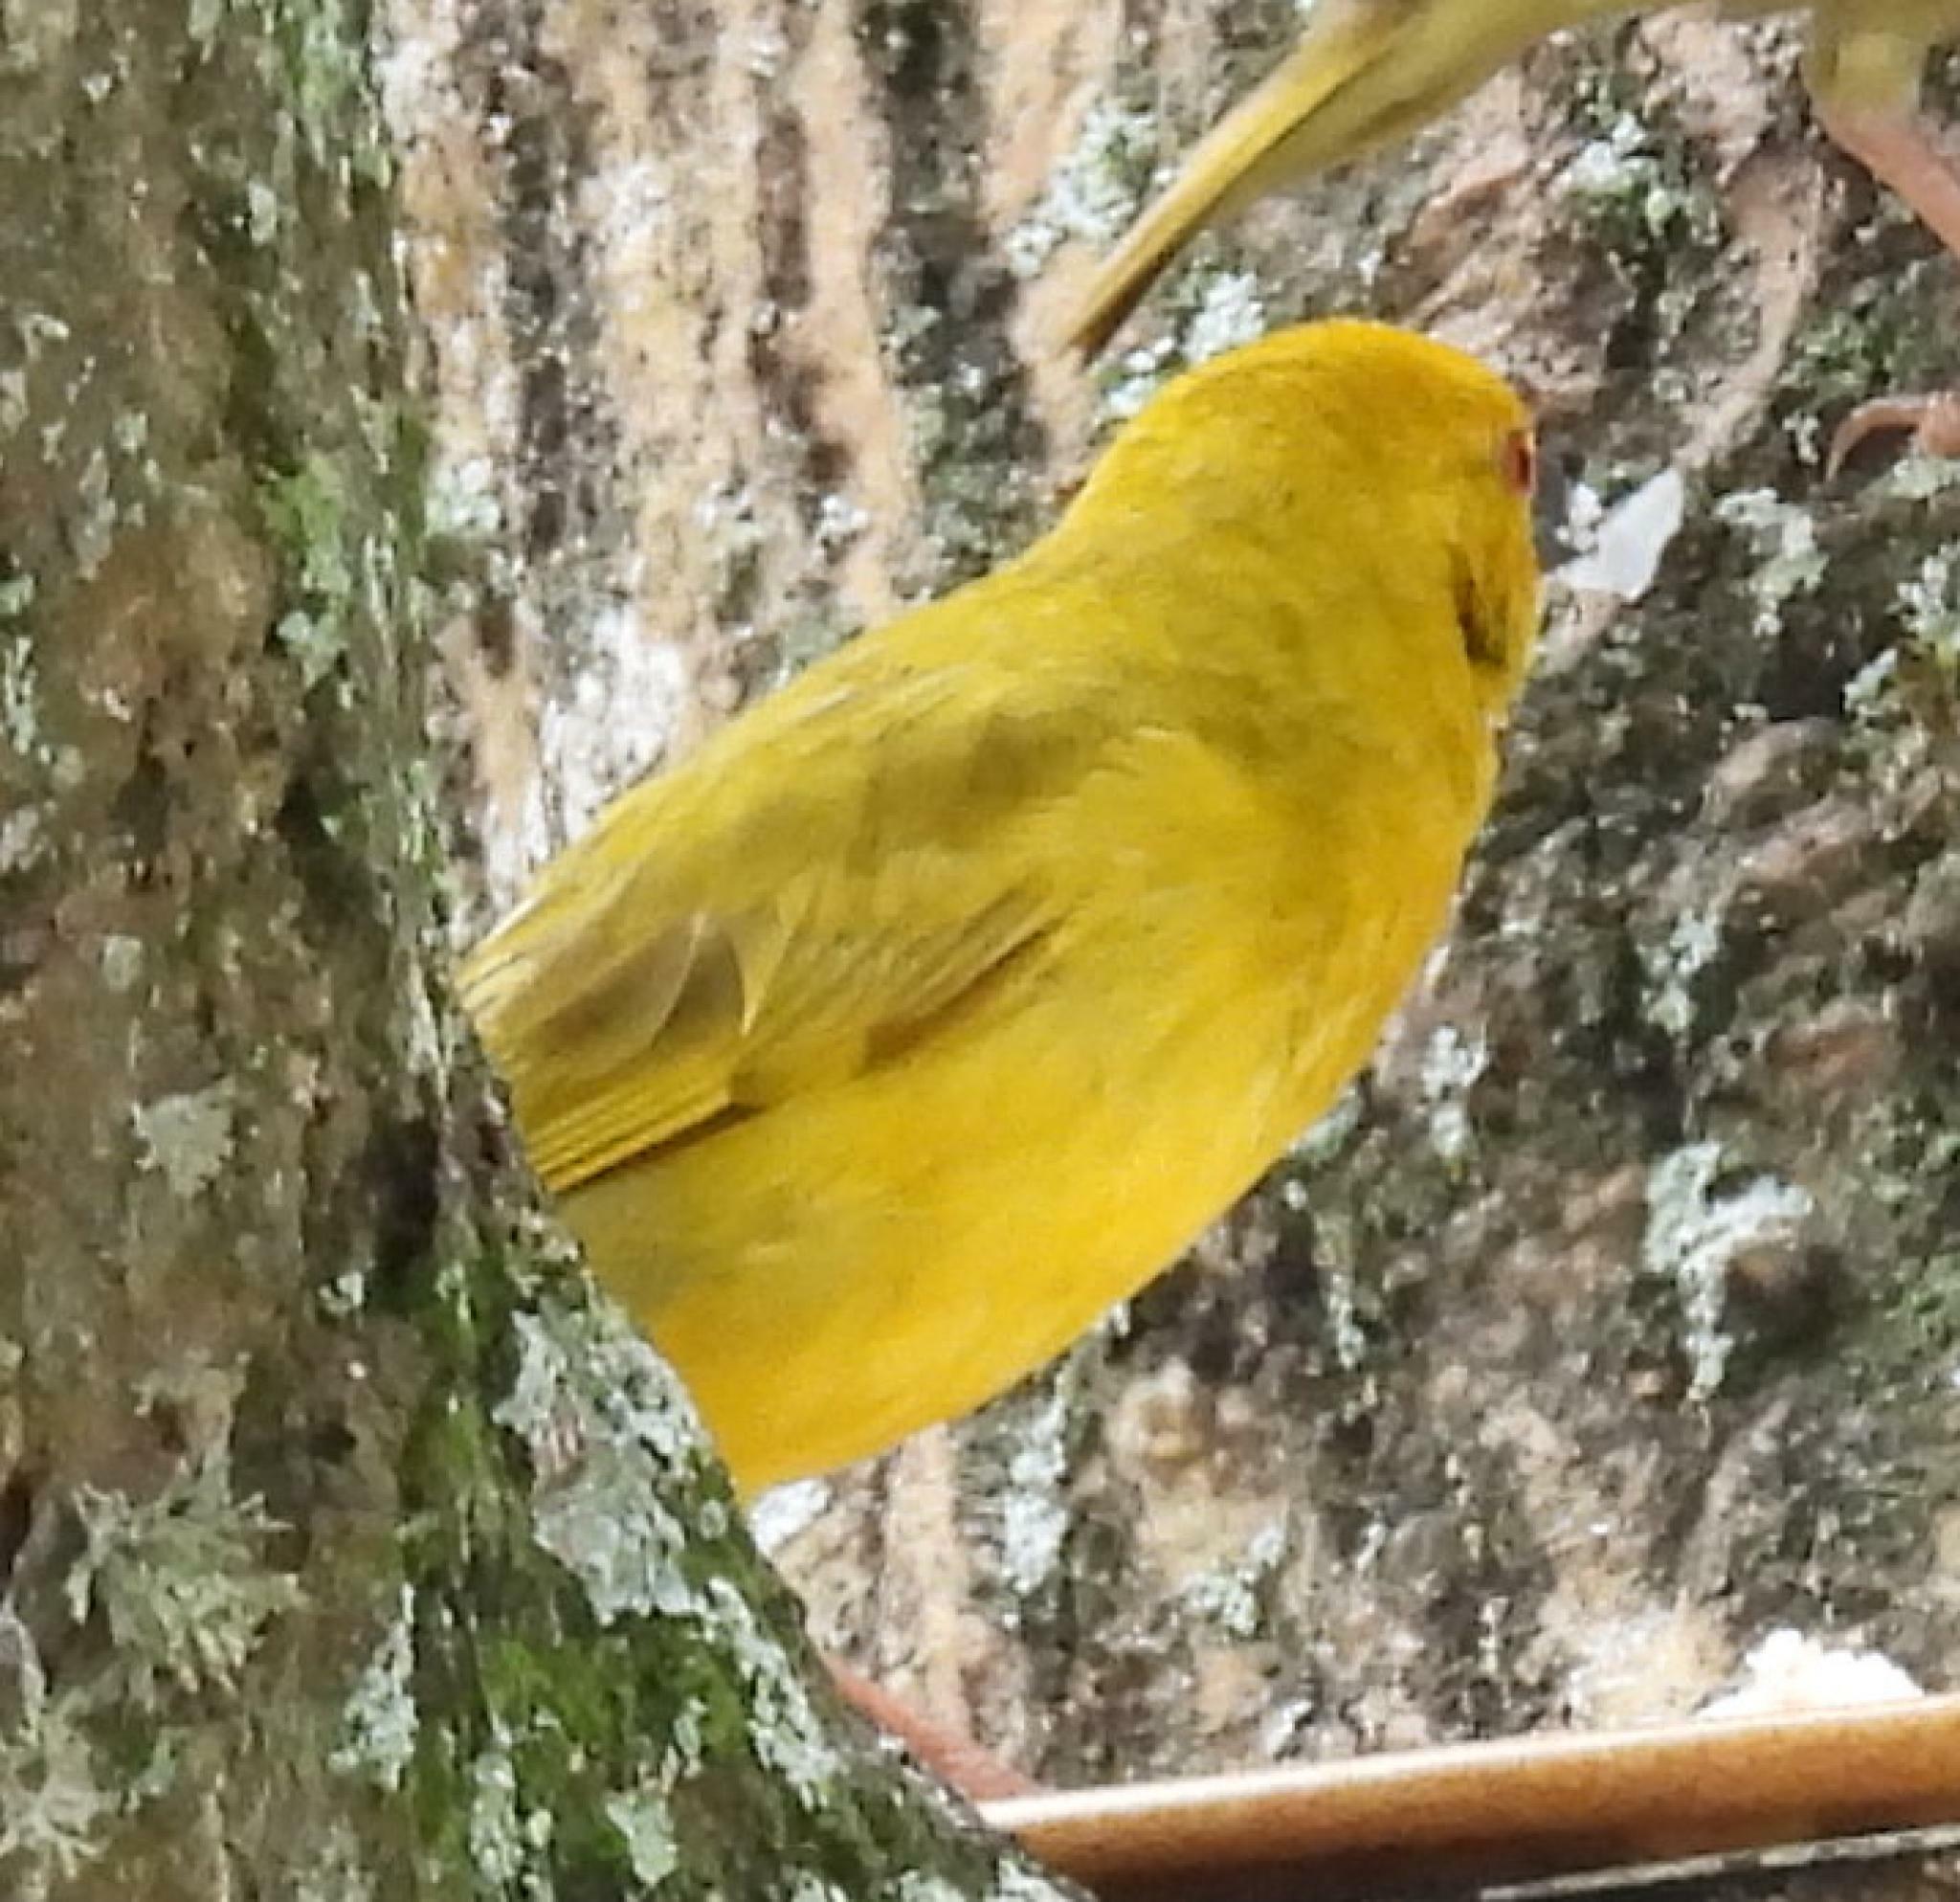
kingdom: Animalia
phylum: Chordata
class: Aves
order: Passeriformes
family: Ploceidae
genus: Ploceus
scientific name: Ploceus subaureus
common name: Yellow weaver
